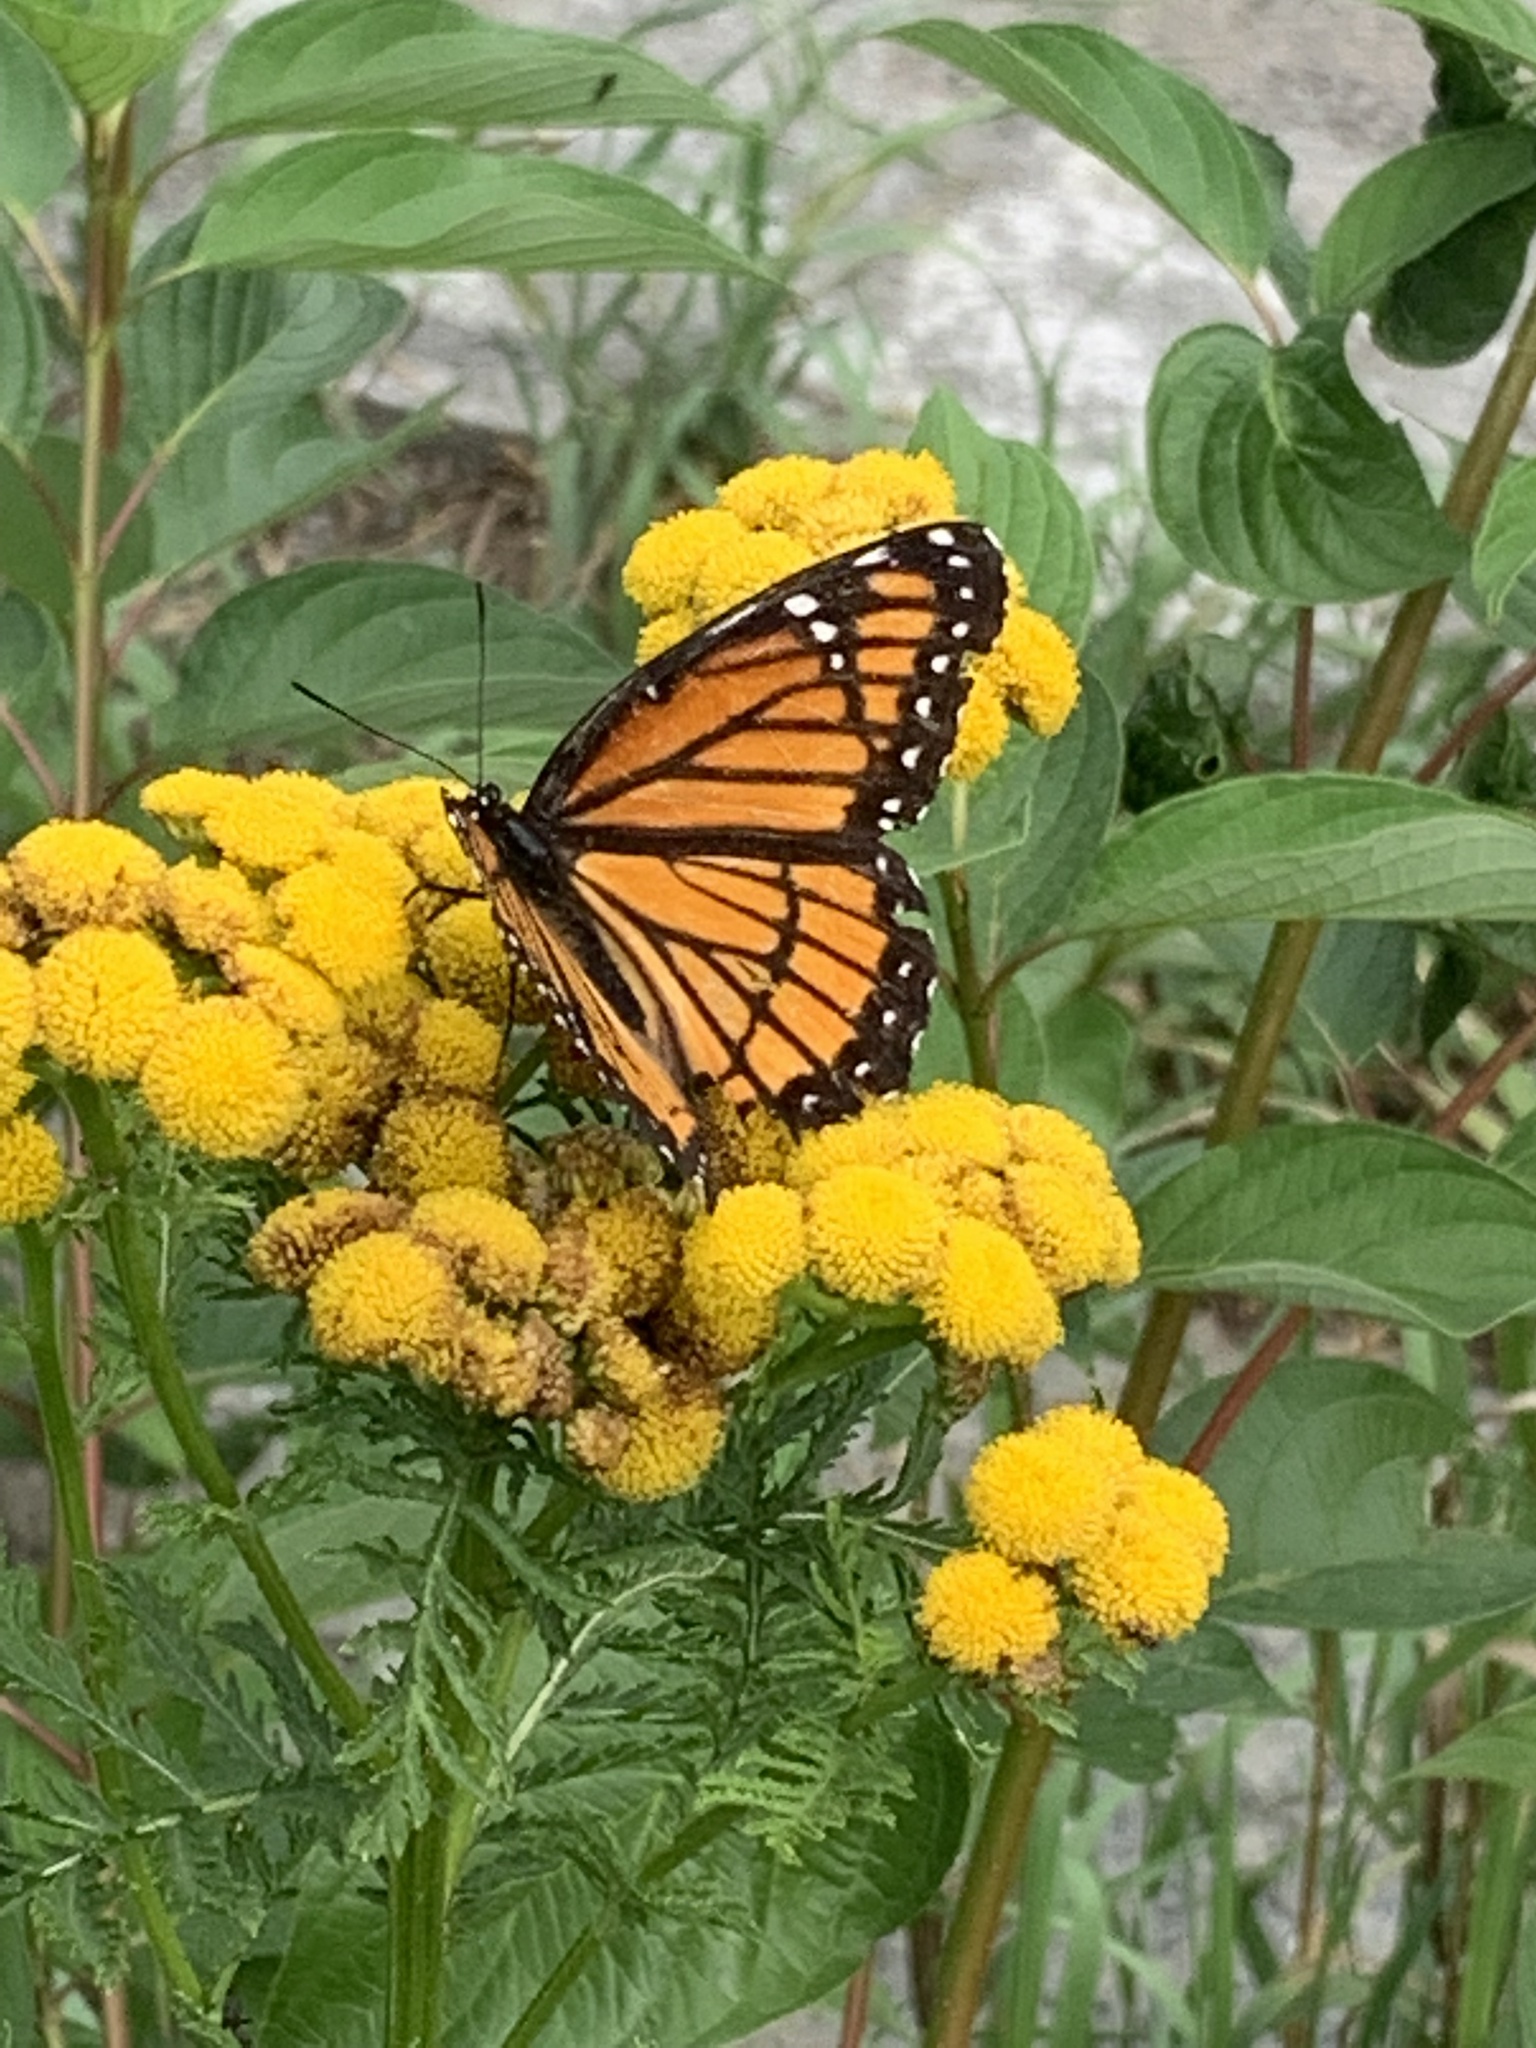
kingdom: Animalia
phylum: Arthropoda
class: Insecta
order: Lepidoptera
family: Nymphalidae
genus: Limenitis
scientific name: Limenitis archippus
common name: Viceroy
